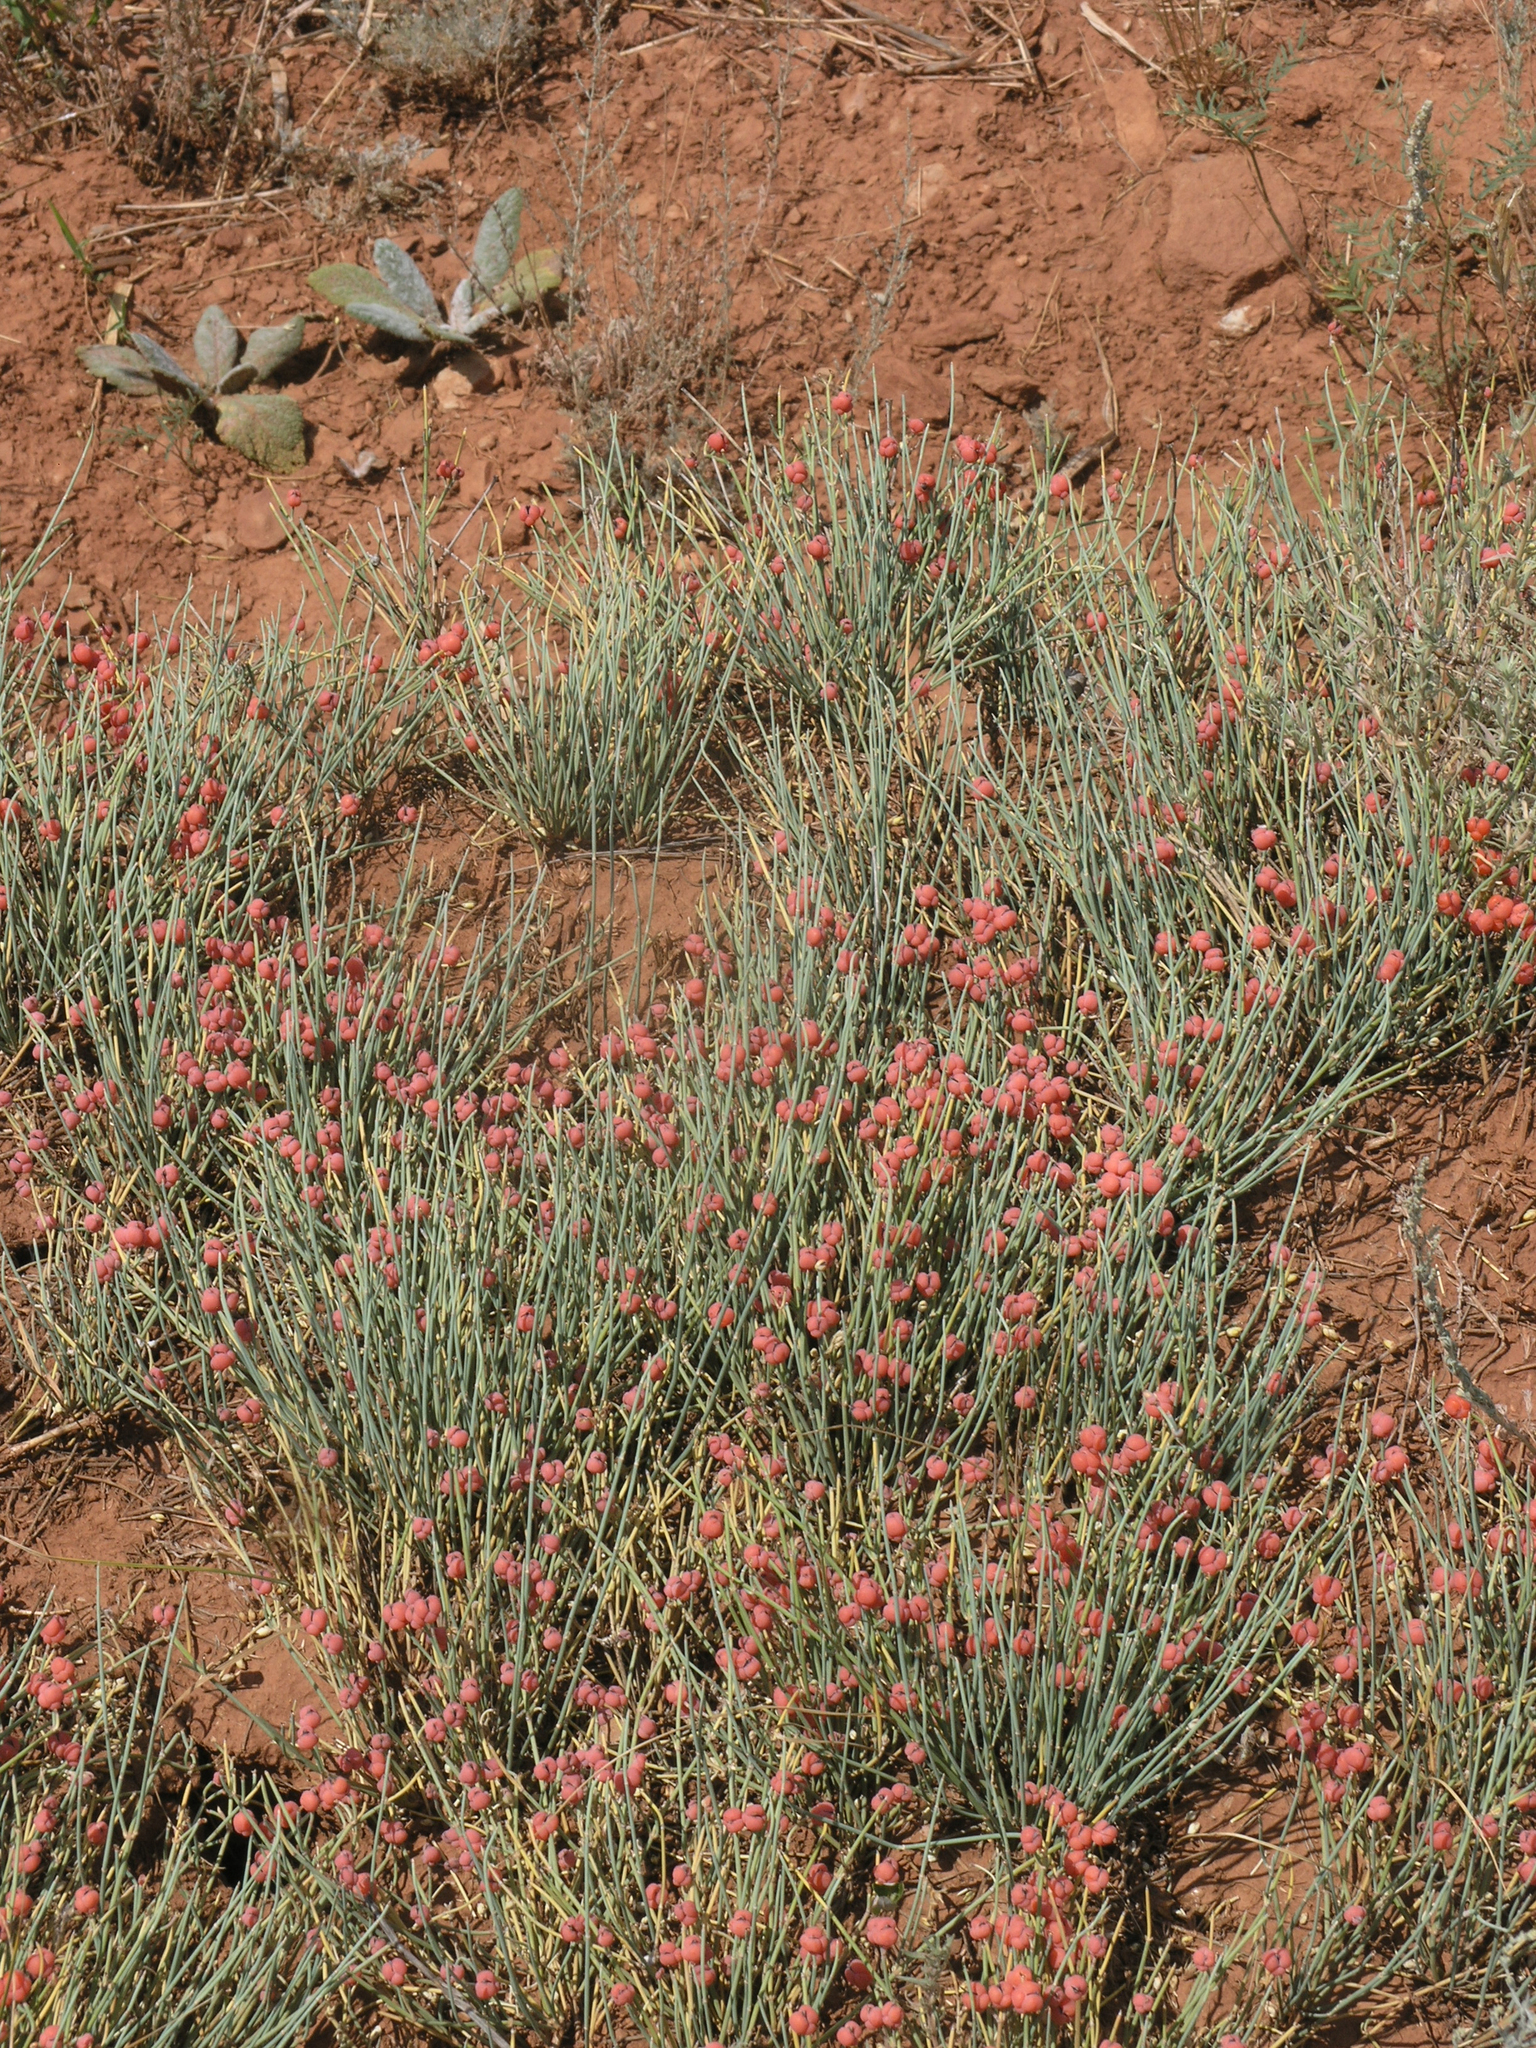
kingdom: Plantae
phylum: Tracheophyta
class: Gnetopsida
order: Ephedrales
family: Ephedraceae
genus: Ephedra
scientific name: Ephedra distachya
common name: Sea grape
